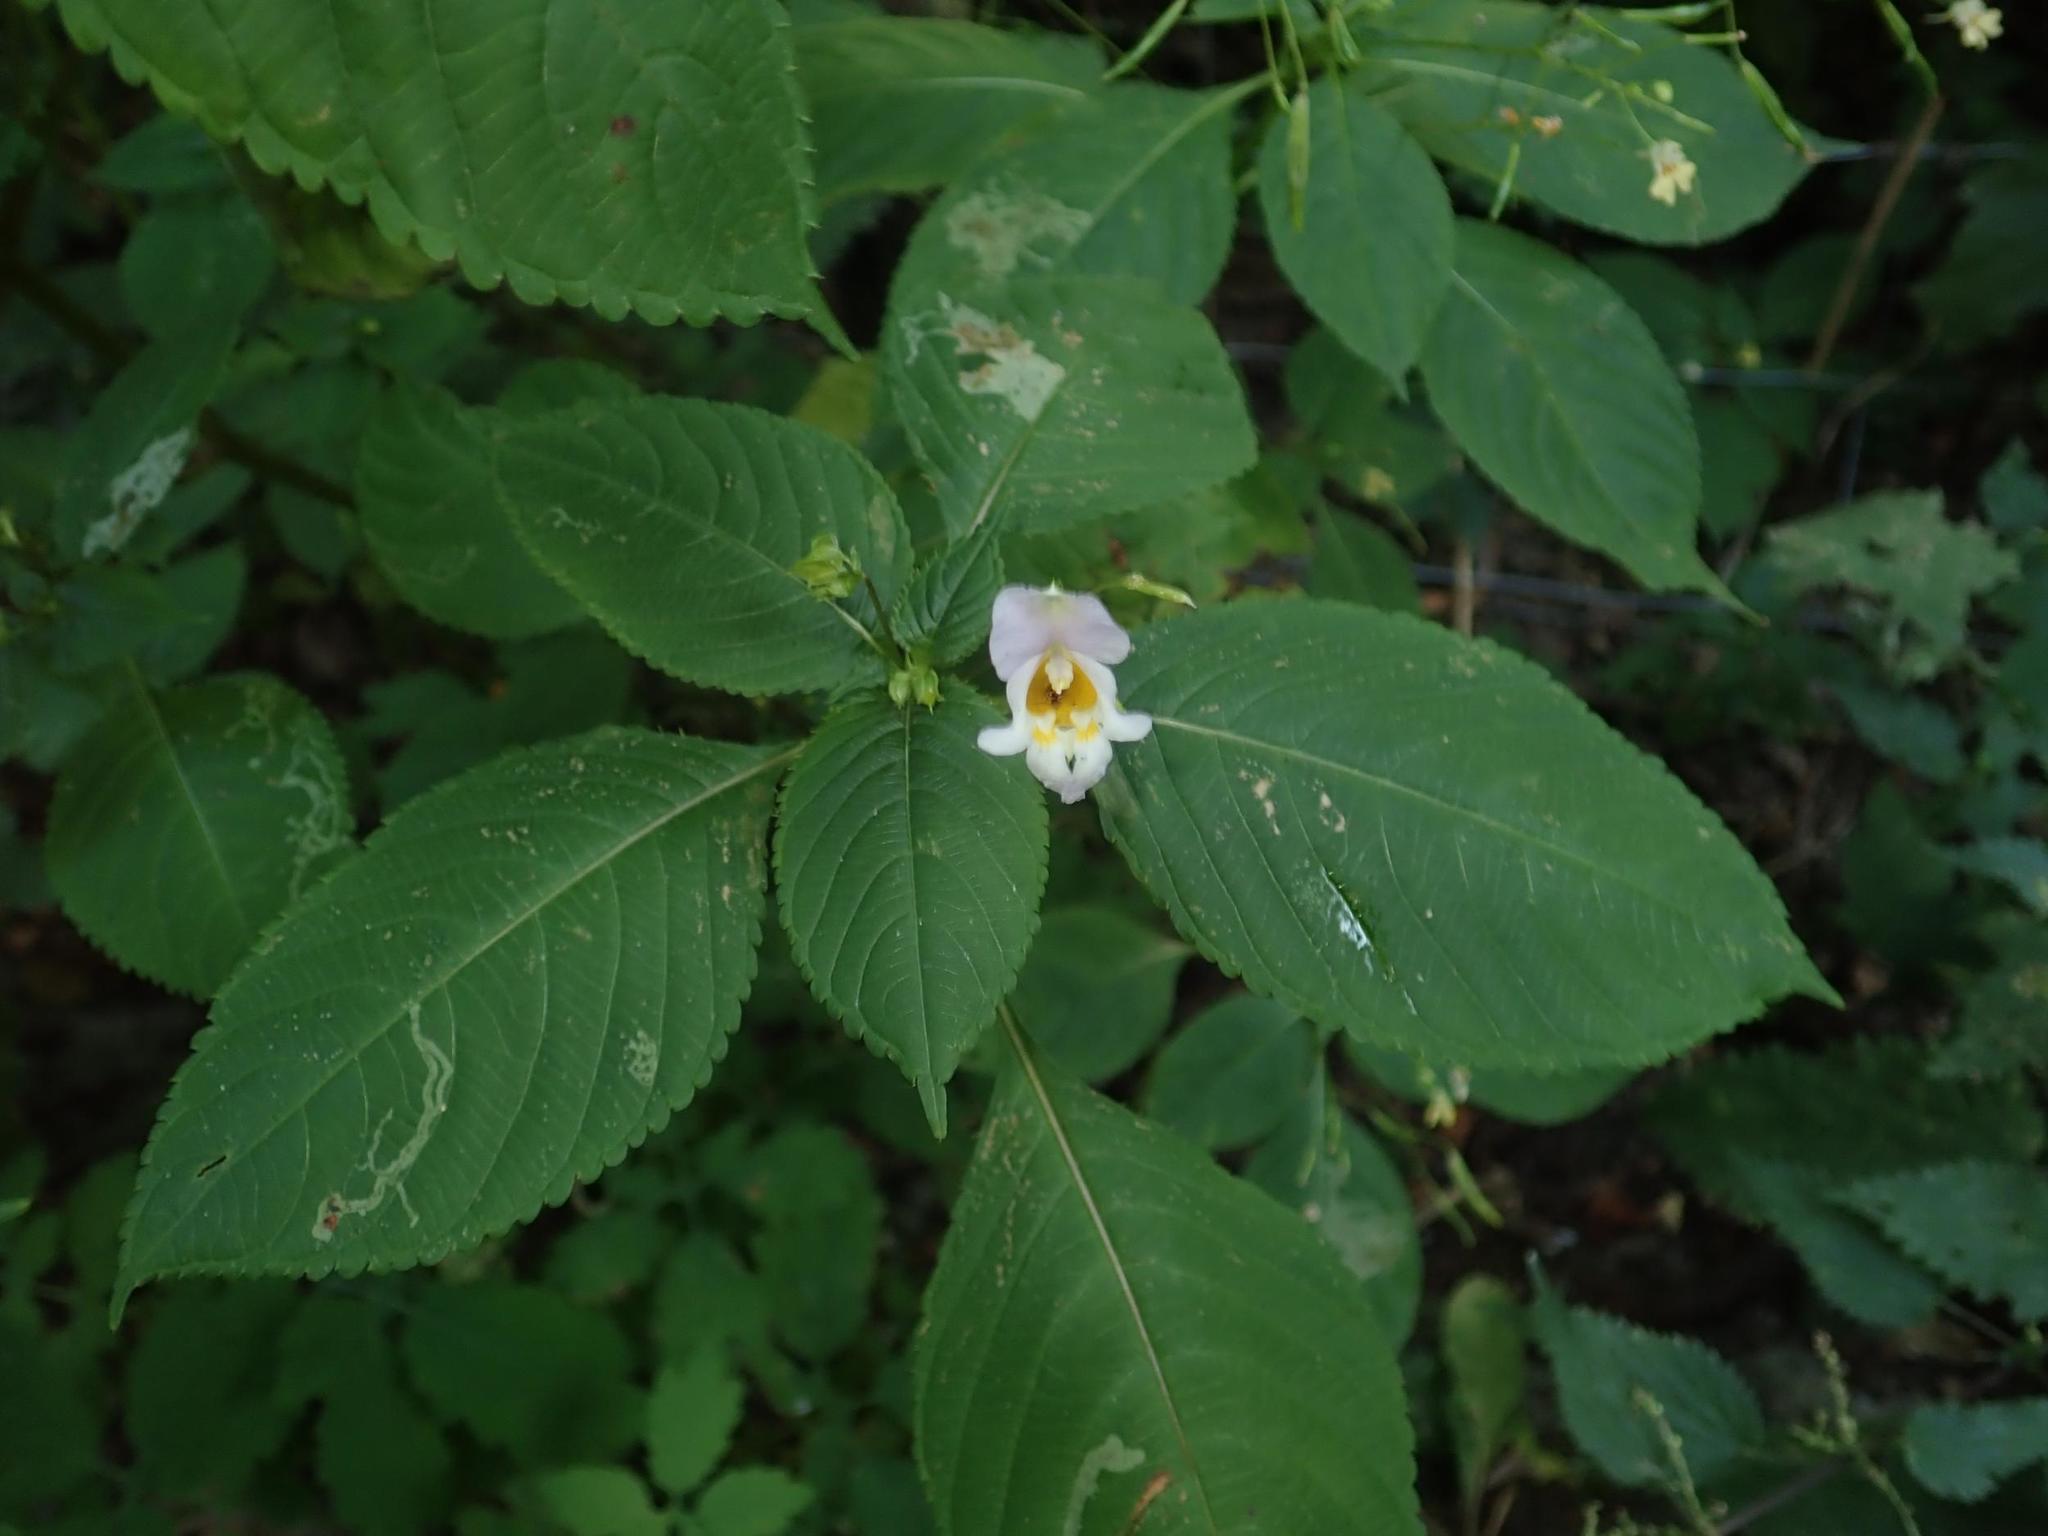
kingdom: Plantae
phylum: Tracheophyta
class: Magnoliopsida
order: Ericales
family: Balsaminaceae
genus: Impatiens
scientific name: Impatiens edgeworthii
